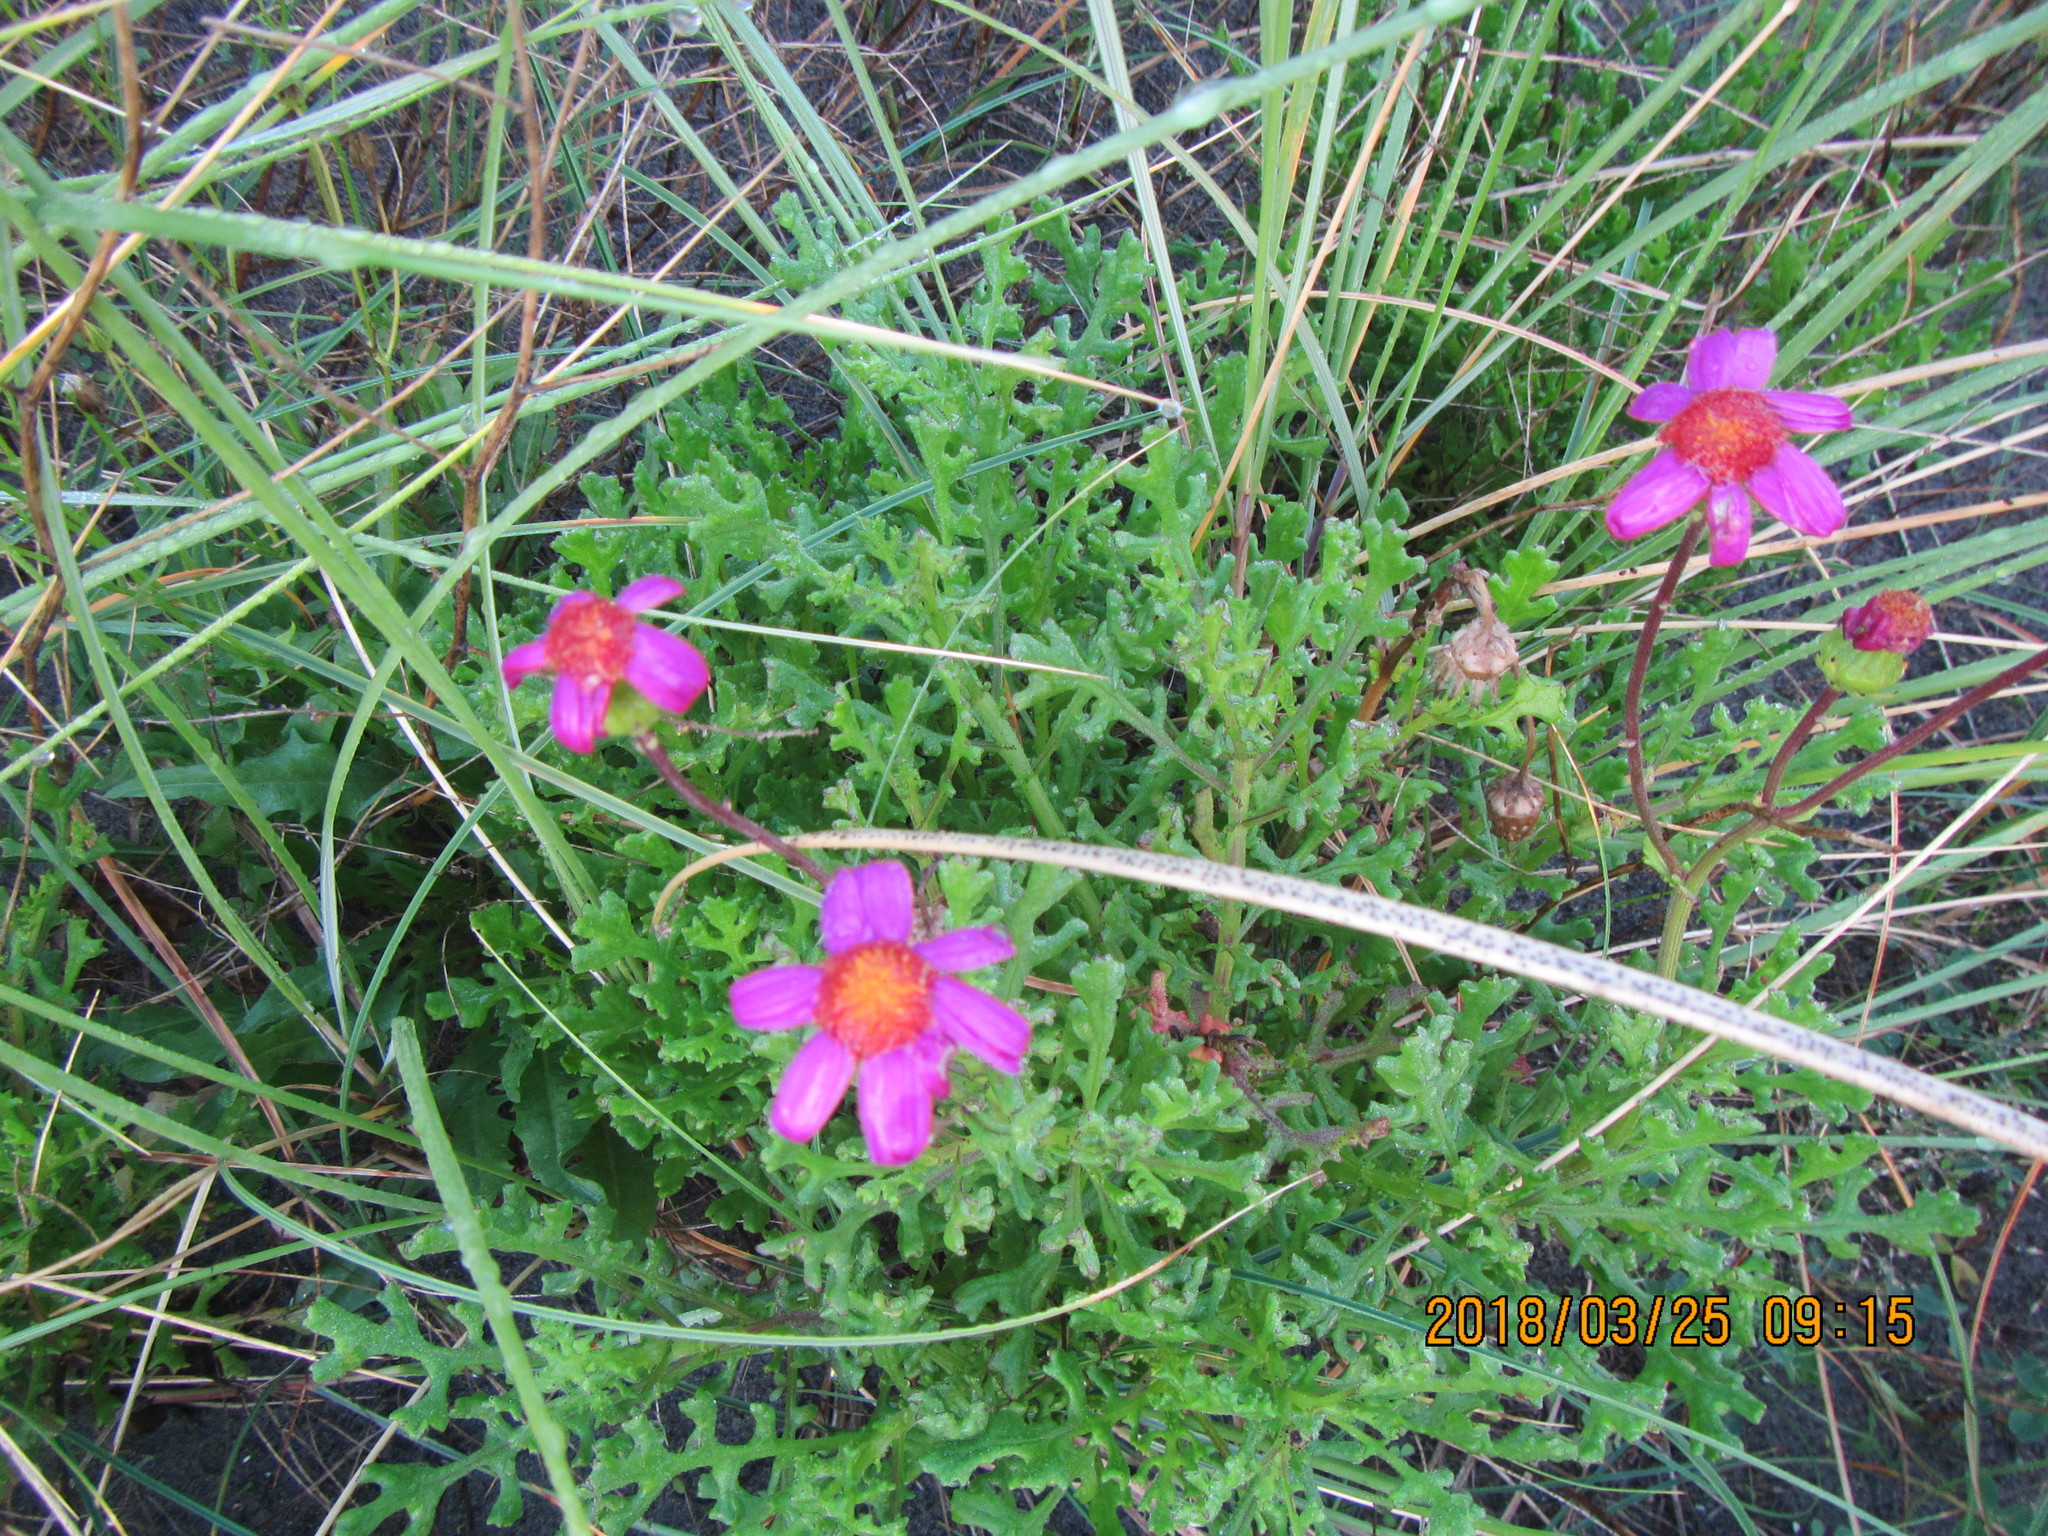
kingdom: Plantae
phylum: Tracheophyta
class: Magnoliopsida
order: Asterales
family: Asteraceae
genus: Senecio
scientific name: Senecio elegans
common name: Purple groundsel
